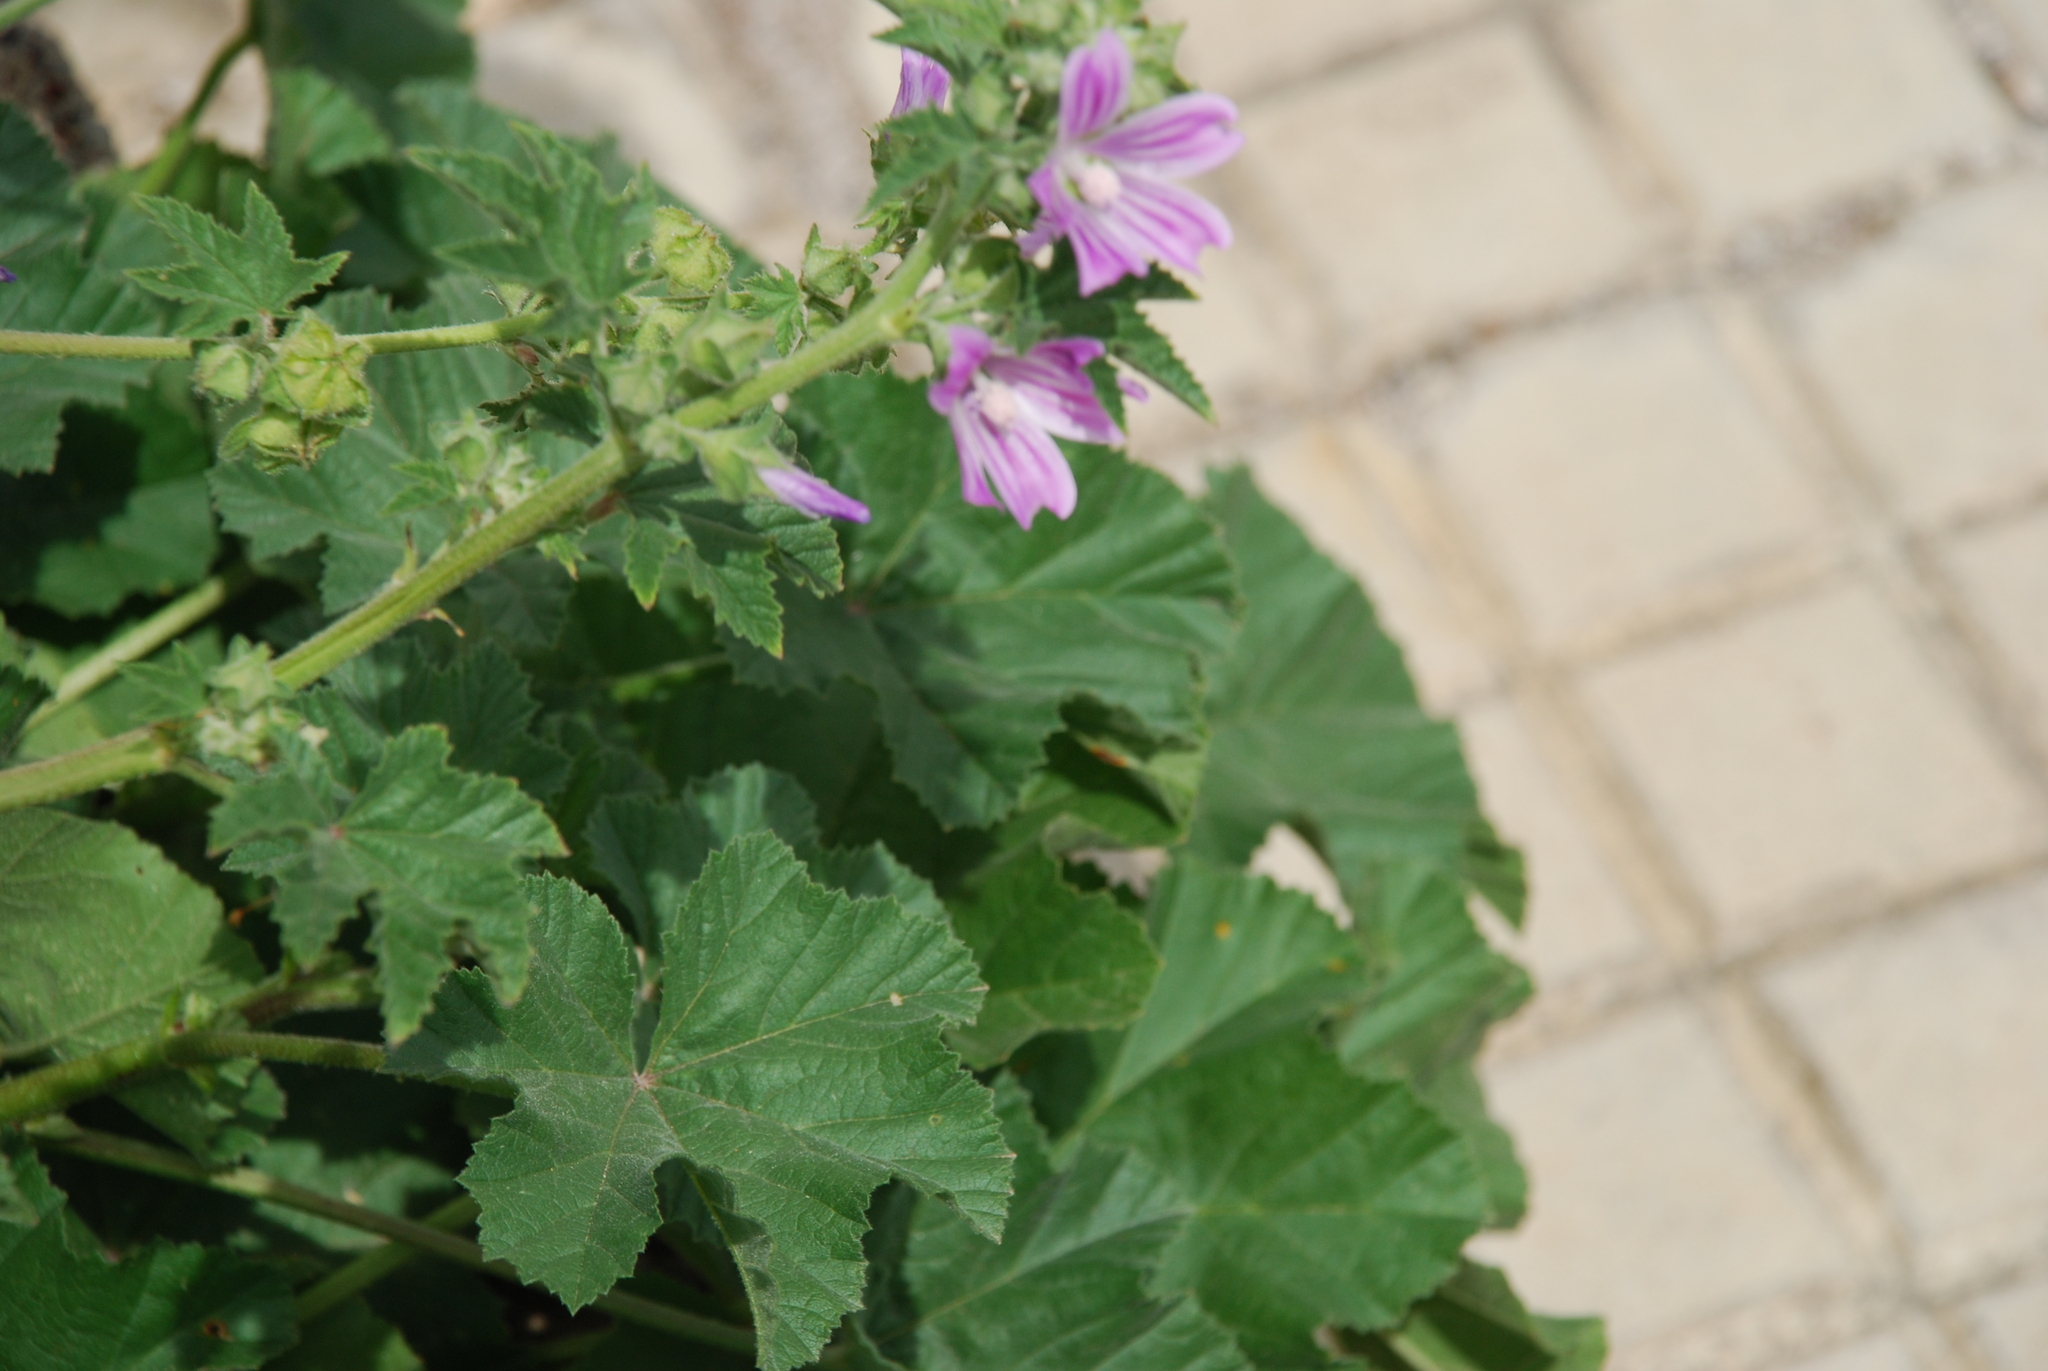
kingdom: Plantae
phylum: Tracheophyta
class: Magnoliopsida
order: Malvales
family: Malvaceae
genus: Malva
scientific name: Malva multiflora
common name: Cheeseweed
